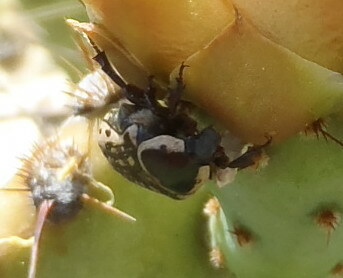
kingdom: Animalia
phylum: Arthropoda
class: Insecta
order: Coleoptera
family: Scarabaeidae
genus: Euphoria
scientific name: Euphoria kernii
